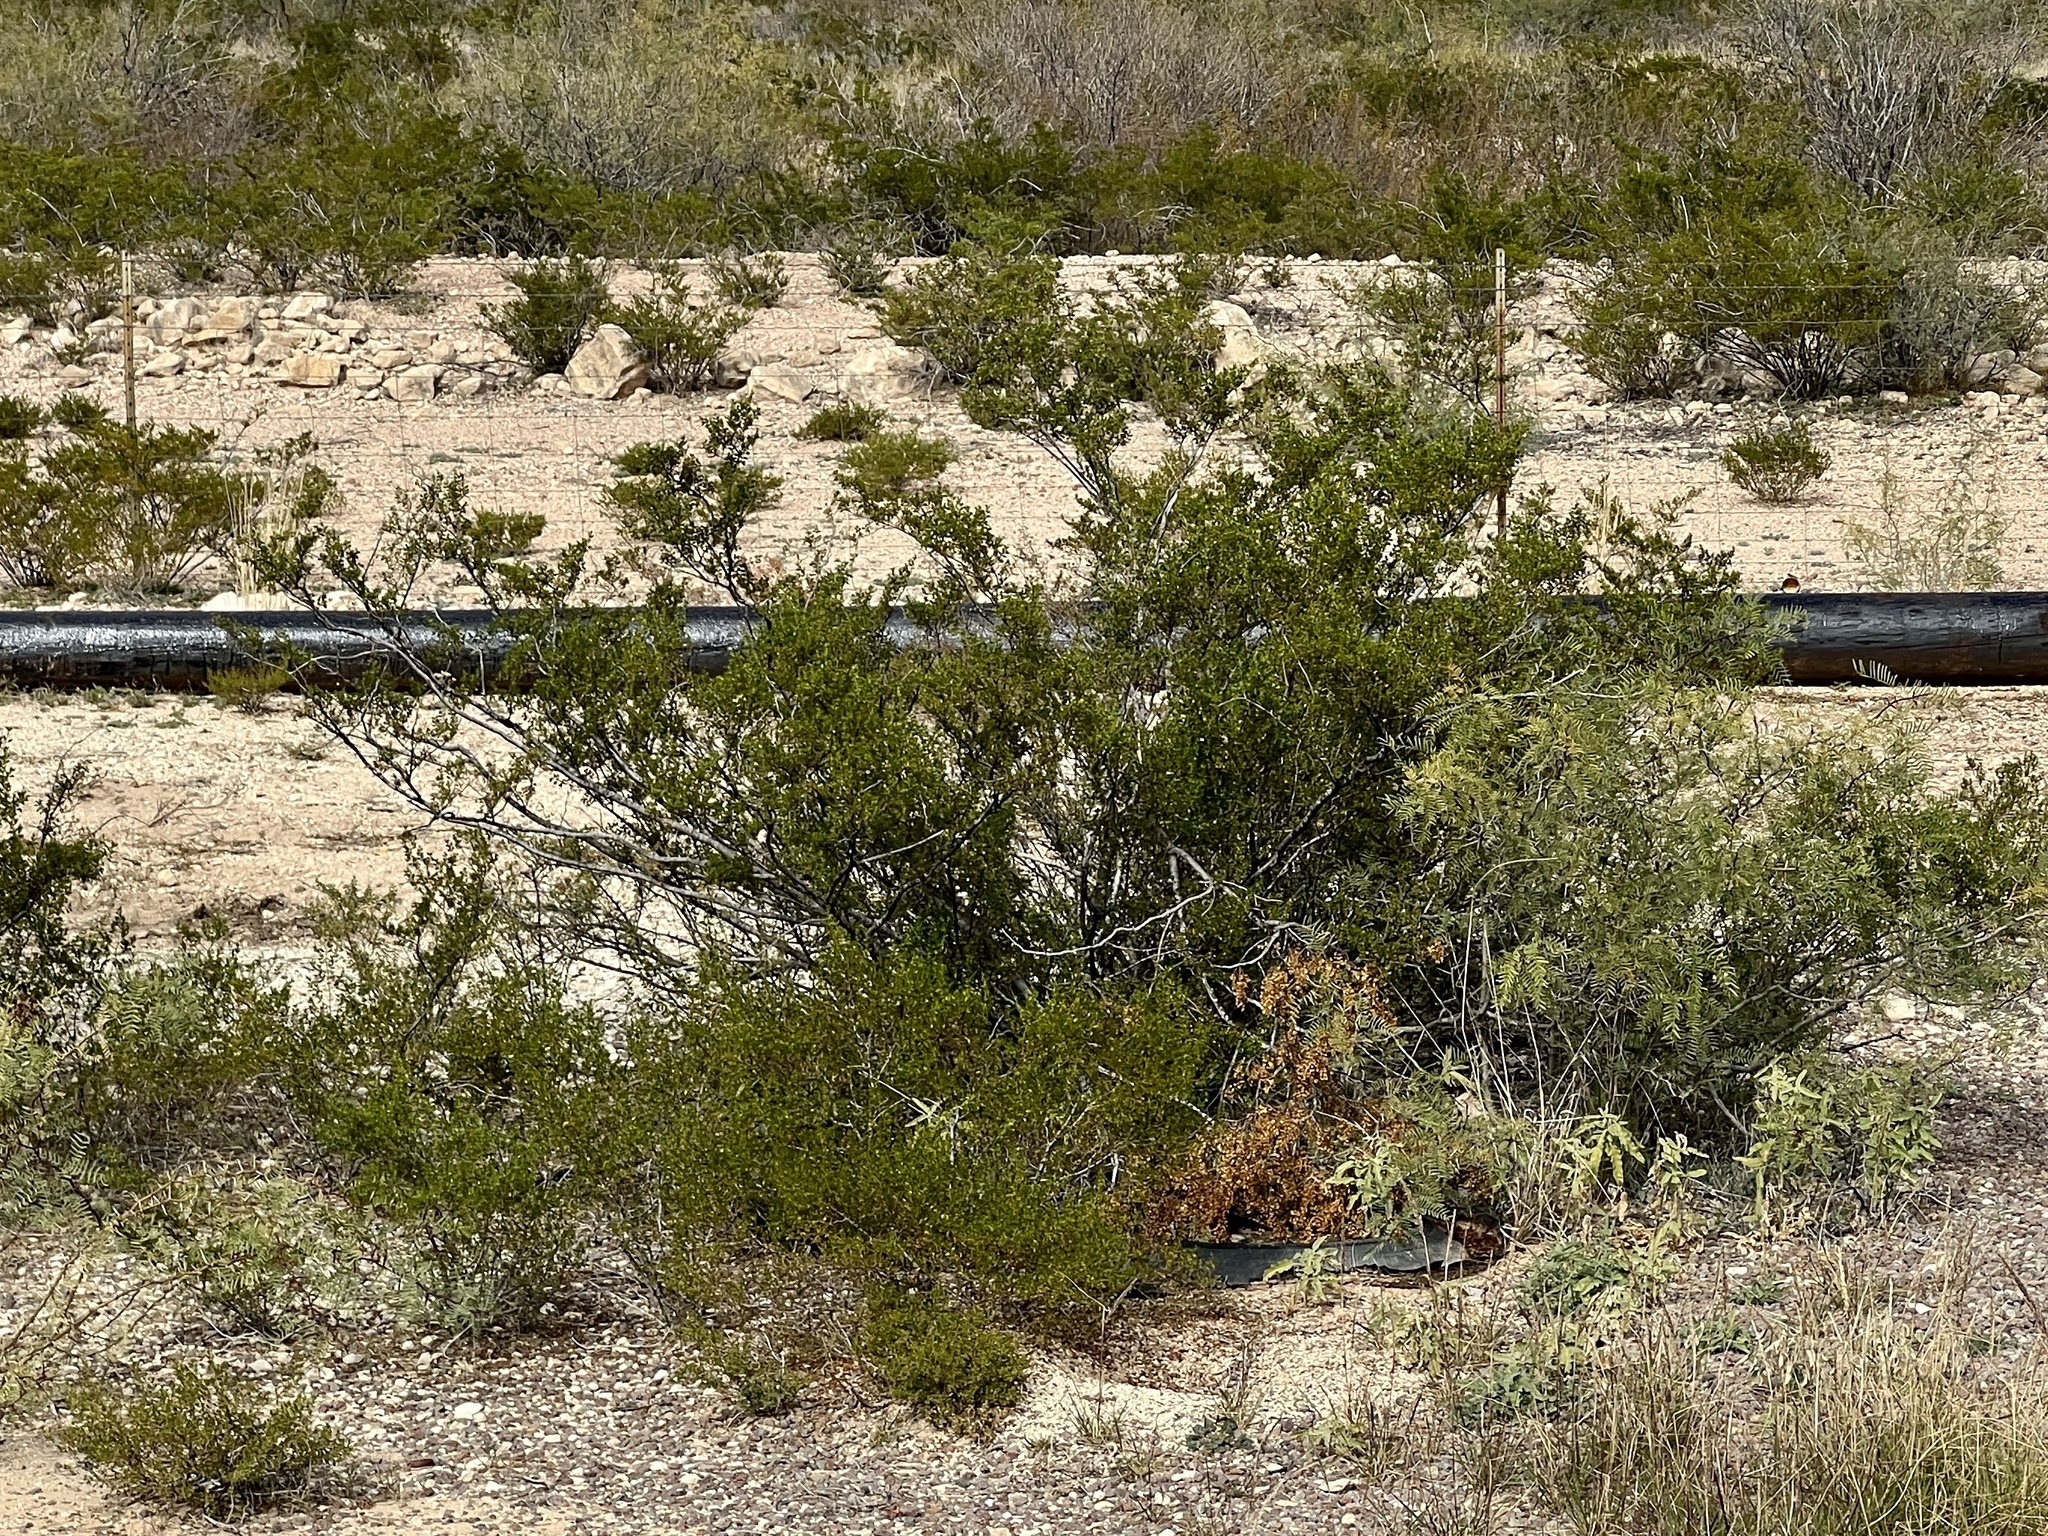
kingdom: Plantae
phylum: Tracheophyta
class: Magnoliopsida
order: Zygophyllales
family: Zygophyllaceae
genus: Larrea
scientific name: Larrea tridentata
